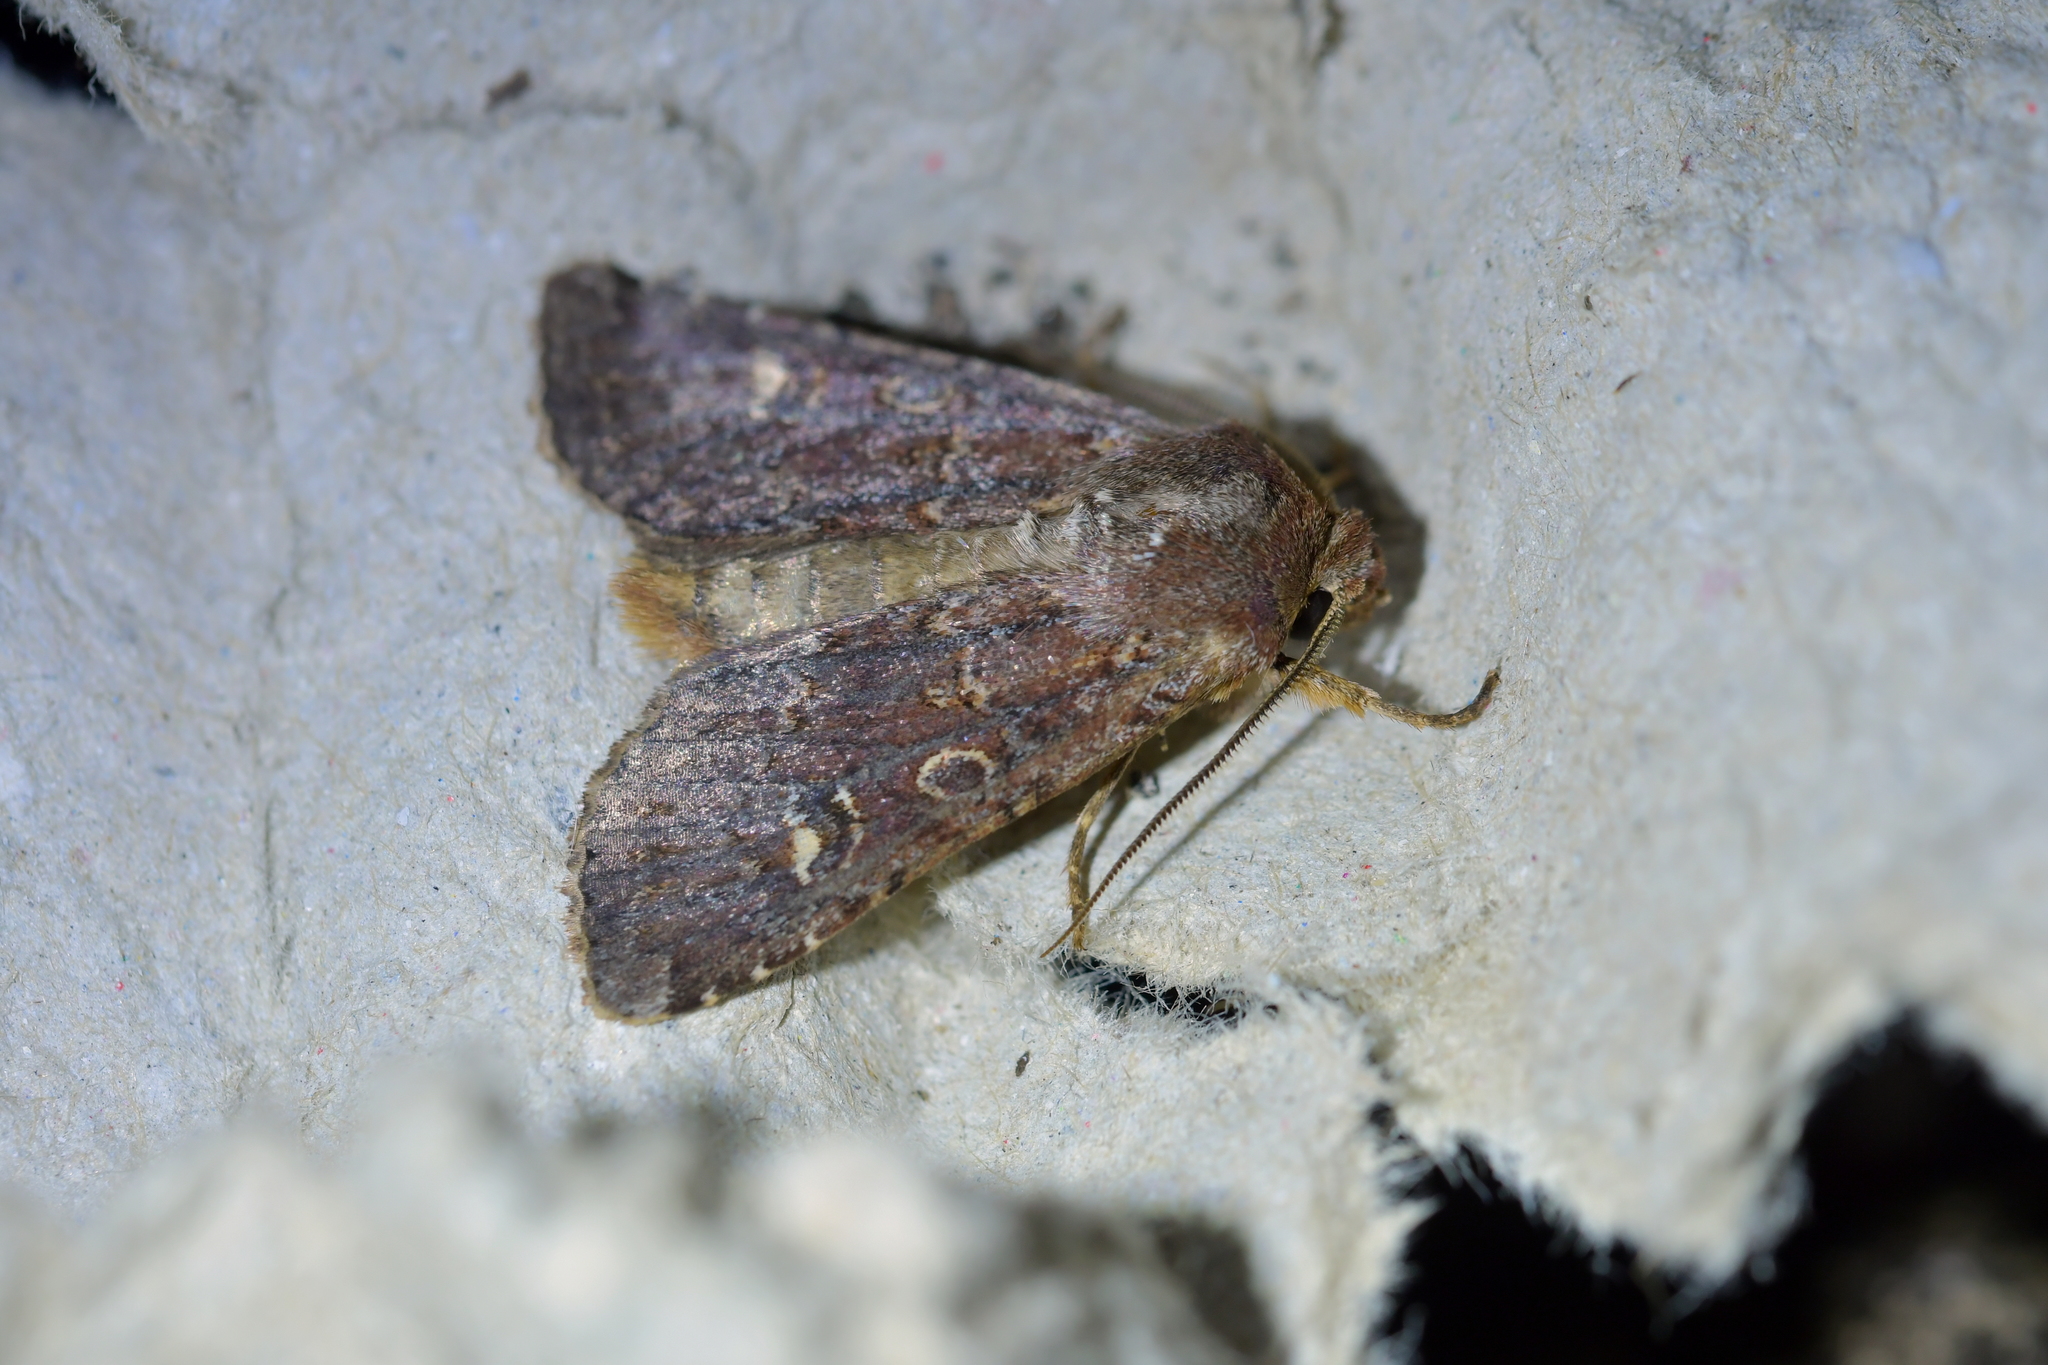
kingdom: Animalia
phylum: Arthropoda
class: Insecta
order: Lepidoptera
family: Noctuidae
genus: Ichneutica
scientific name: Ichneutica atristriga
